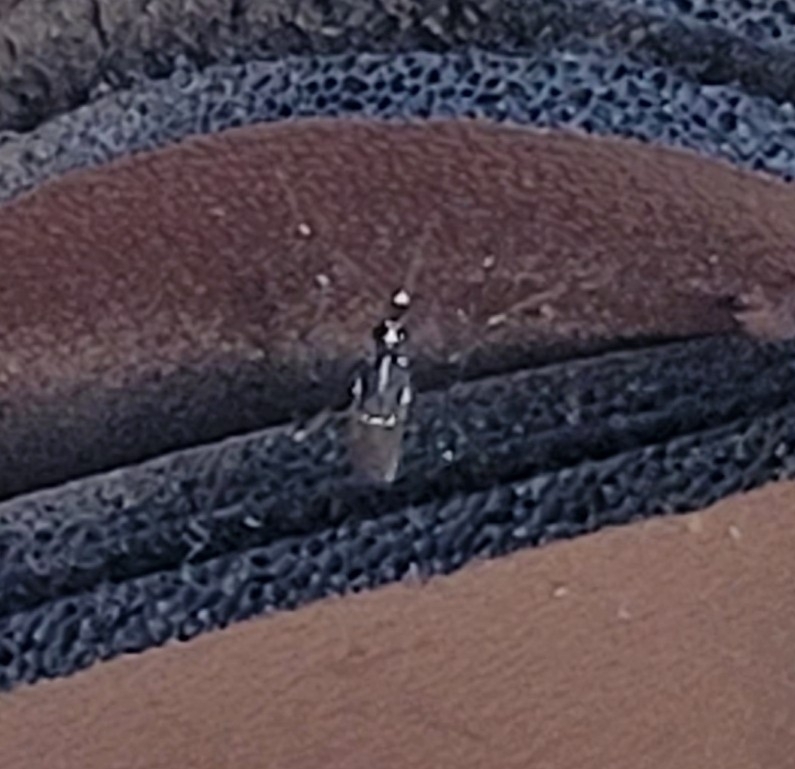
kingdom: Animalia
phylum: Arthropoda
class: Insecta
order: Diptera
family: Culicidae
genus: Aedes
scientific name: Aedes albopictus
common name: Tiger mosquito
